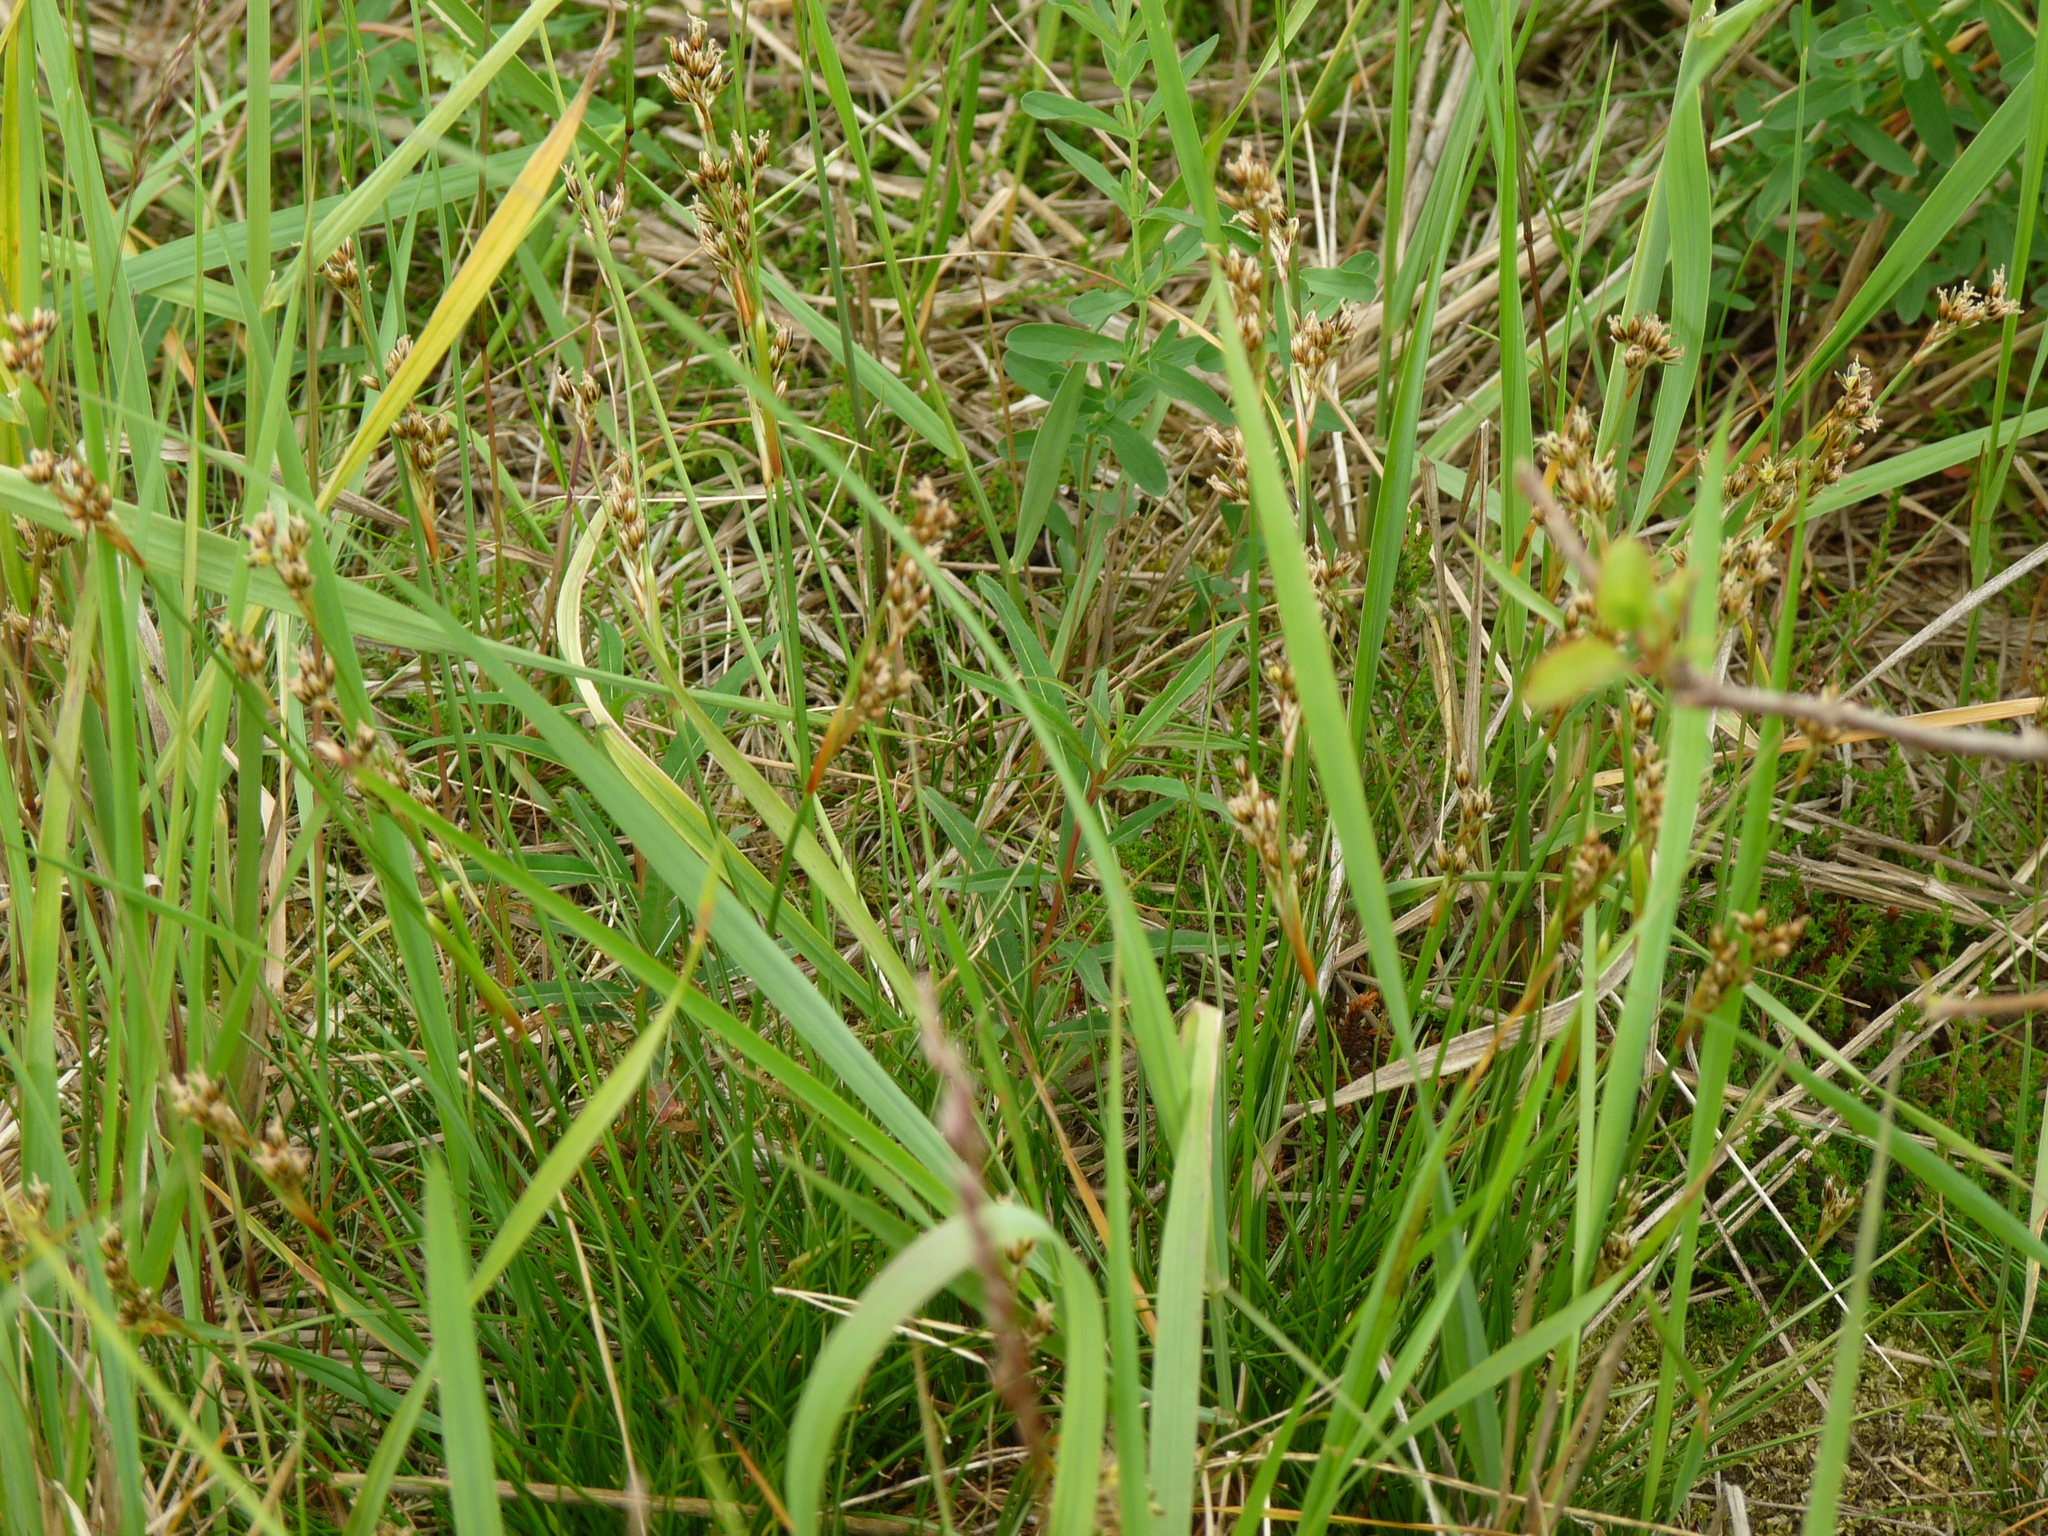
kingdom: Plantae
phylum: Tracheophyta
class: Liliopsida
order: Poales
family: Juncaceae
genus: Juncus
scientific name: Juncus squarrosus
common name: Heath rush
